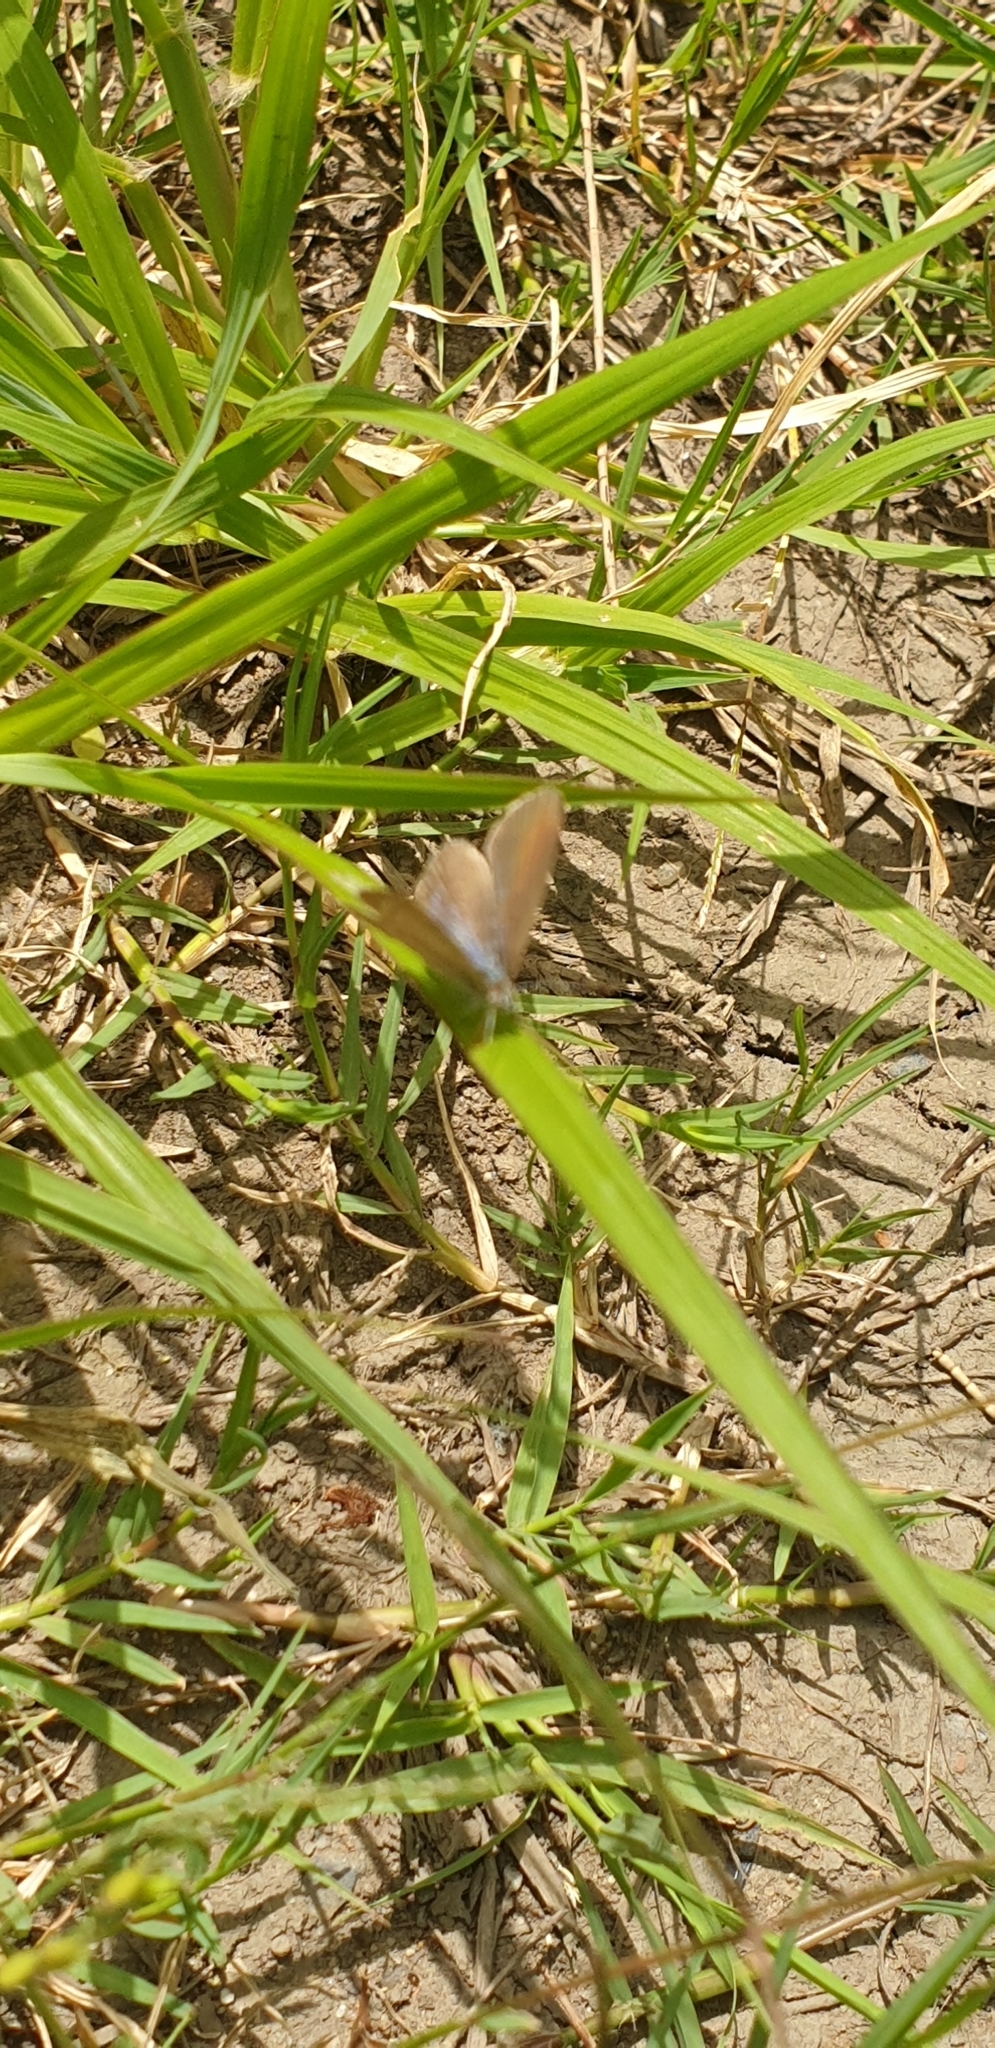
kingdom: Animalia
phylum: Arthropoda
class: Insecta
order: Lepidoptera
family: Lycaenidae
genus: Zizina
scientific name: Zizina labradus
